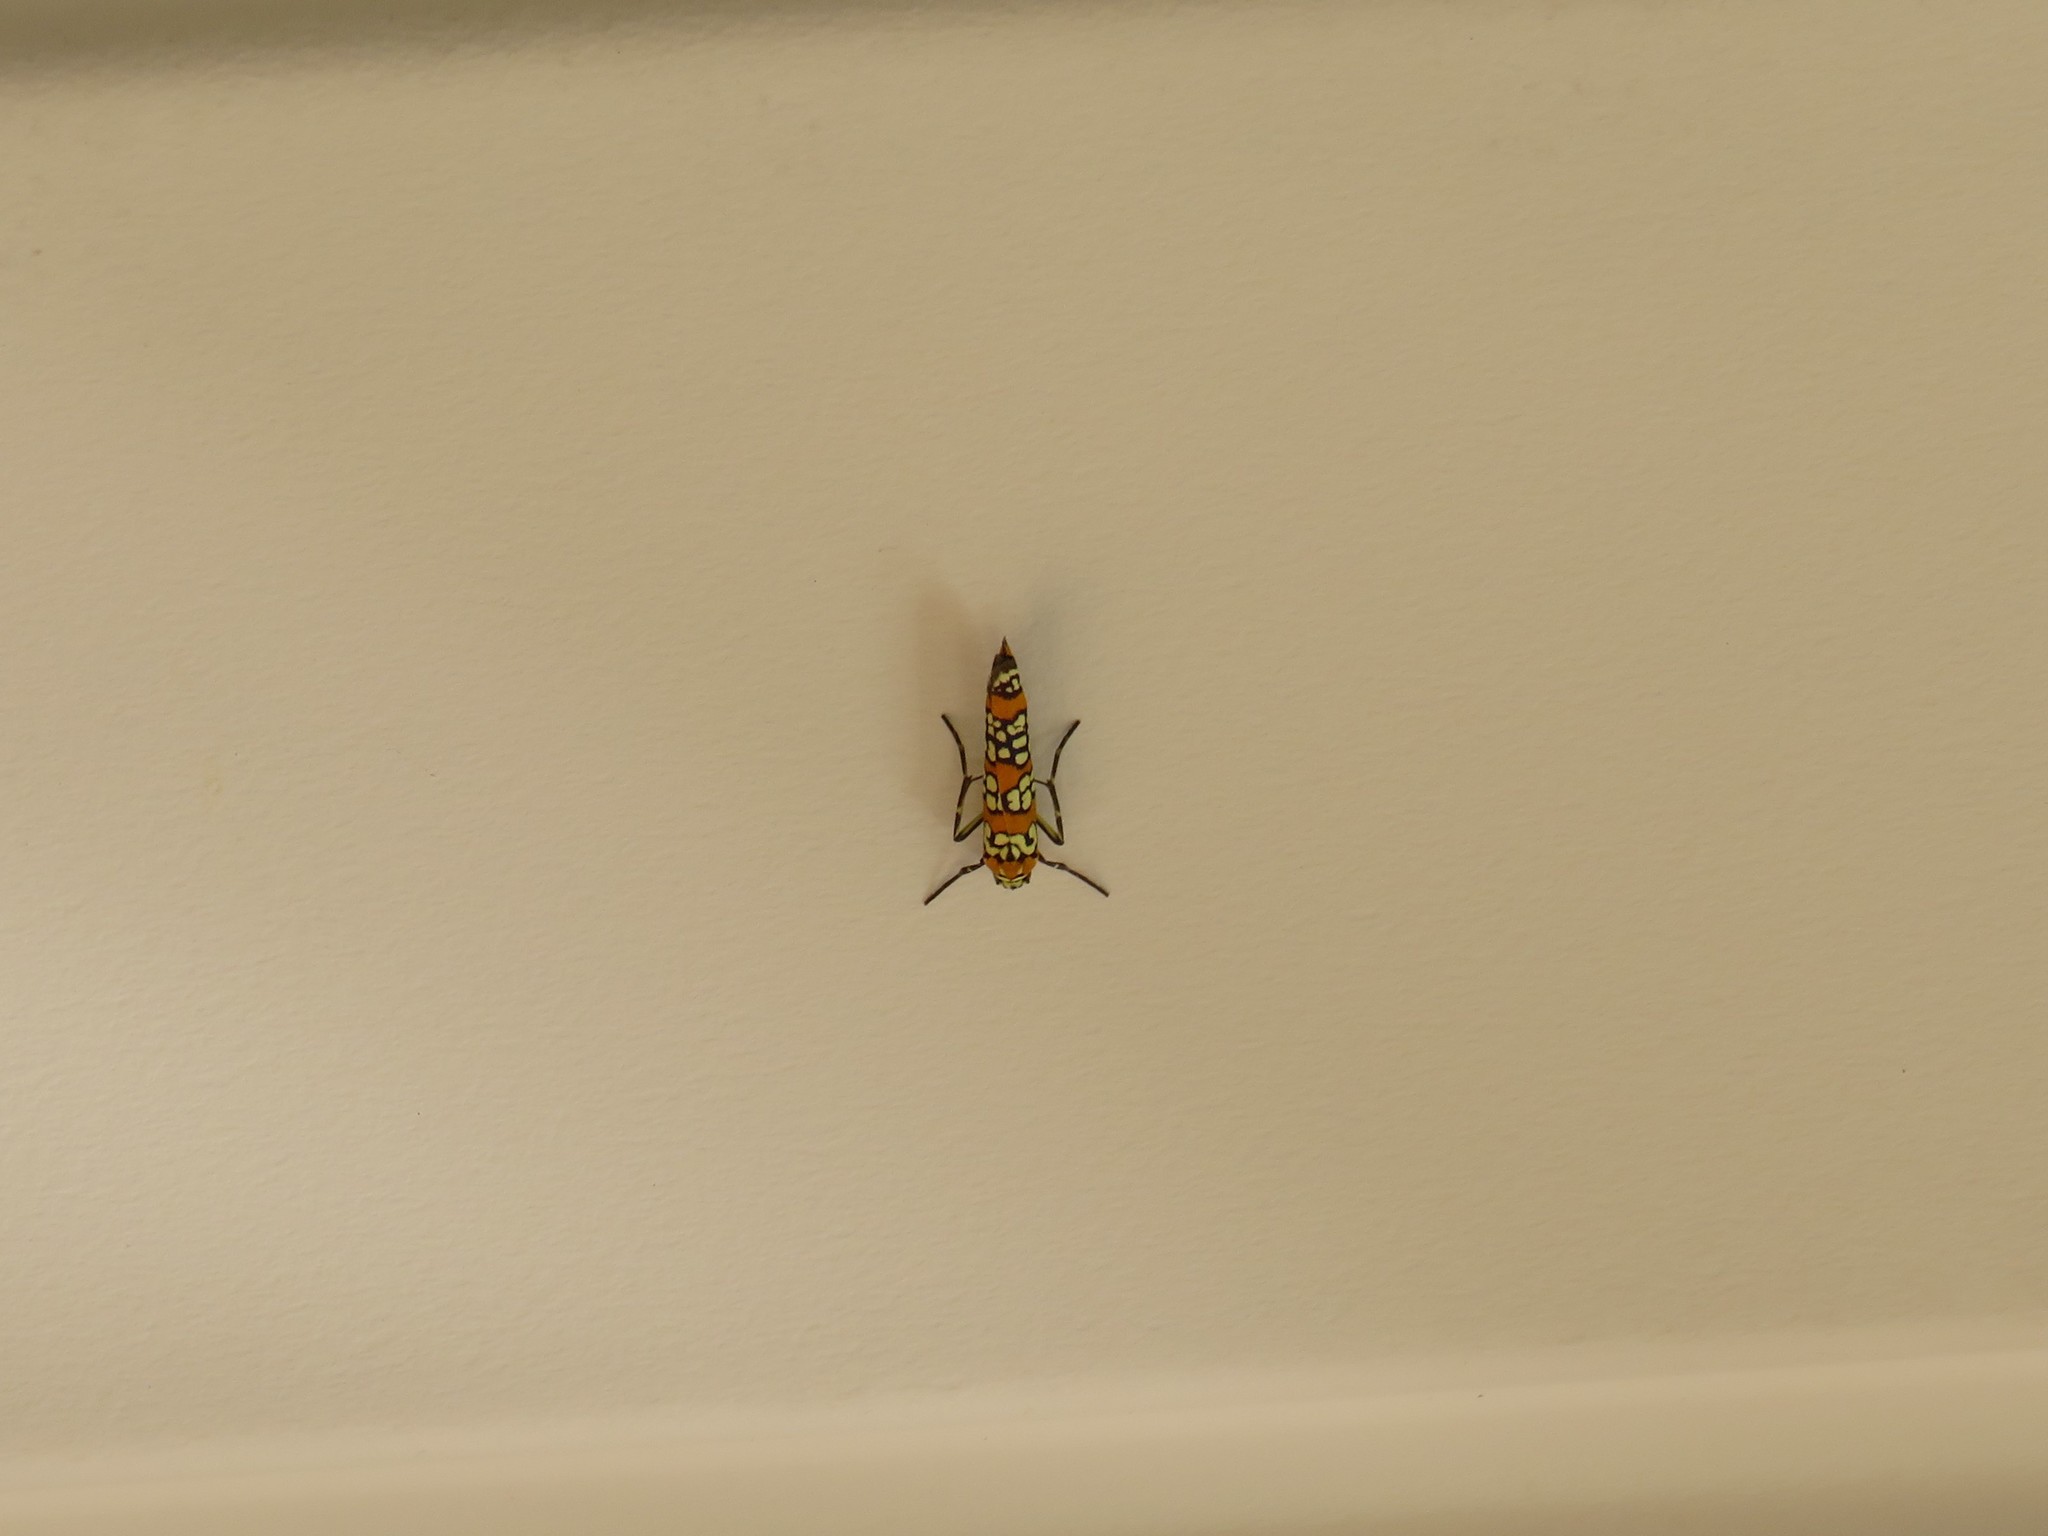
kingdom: Animalia
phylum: Arthropoda
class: Insecta
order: Lepidoptera
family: Attevidae
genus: Atteva
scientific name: Atteva punctella
